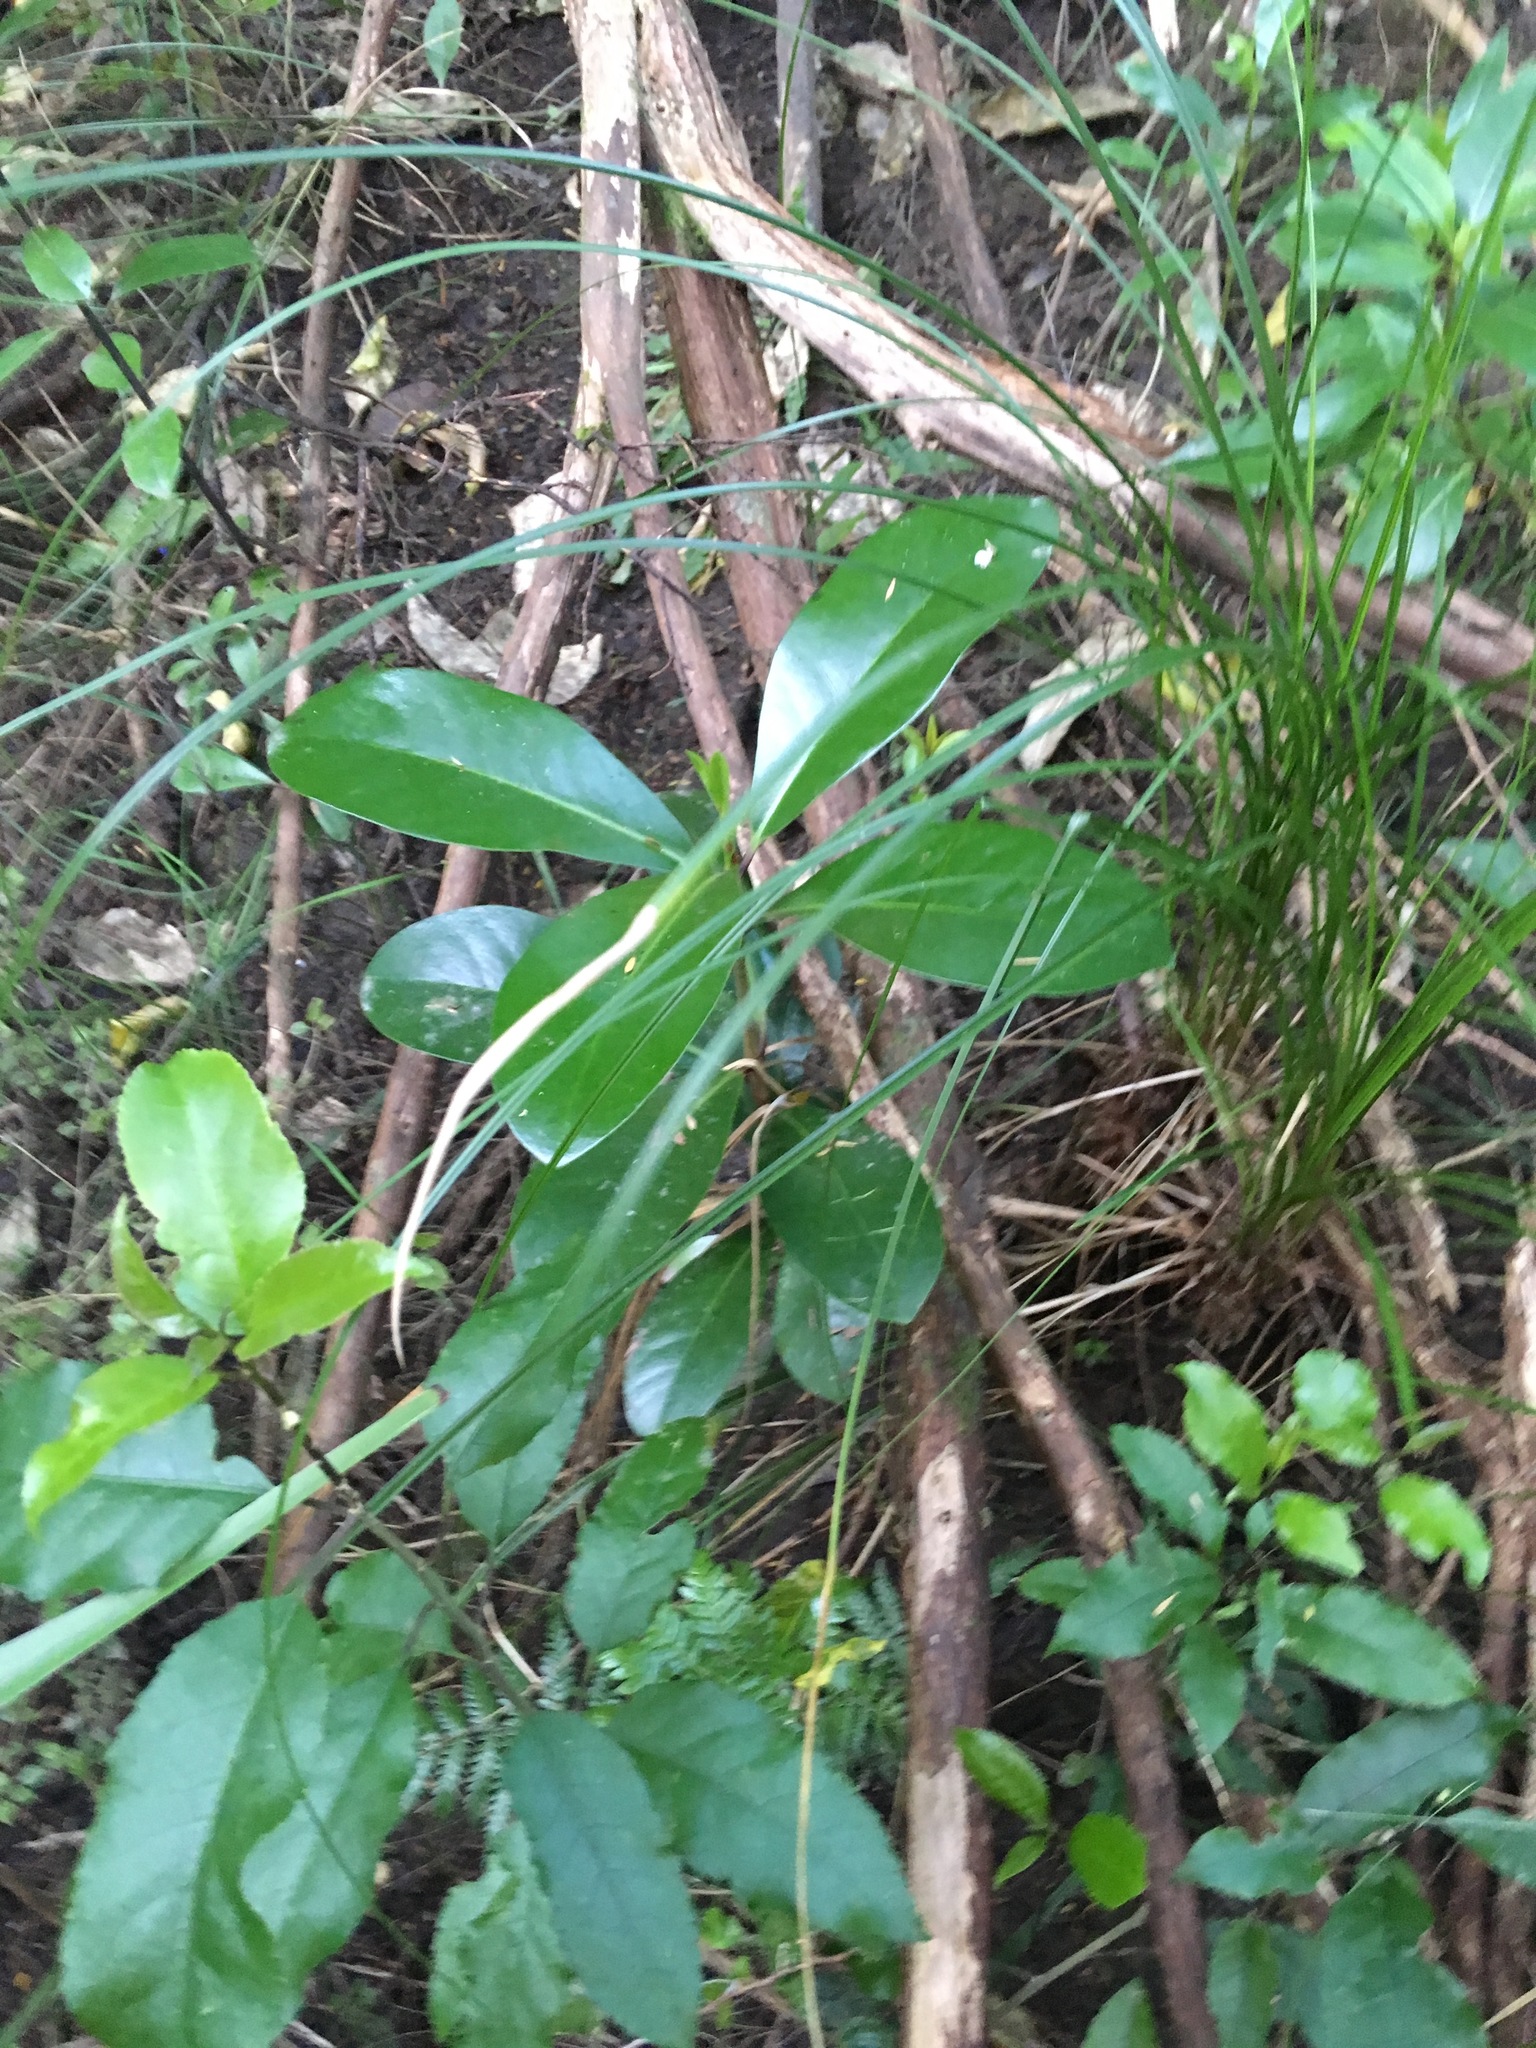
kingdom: Plantae
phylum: Tracheophyta
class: Magnoliopsida
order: Cucurbitales
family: Corynocarpaceae
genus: Corynocarpus
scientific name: Corynocarpus laevigatus
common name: New zealand laurel
